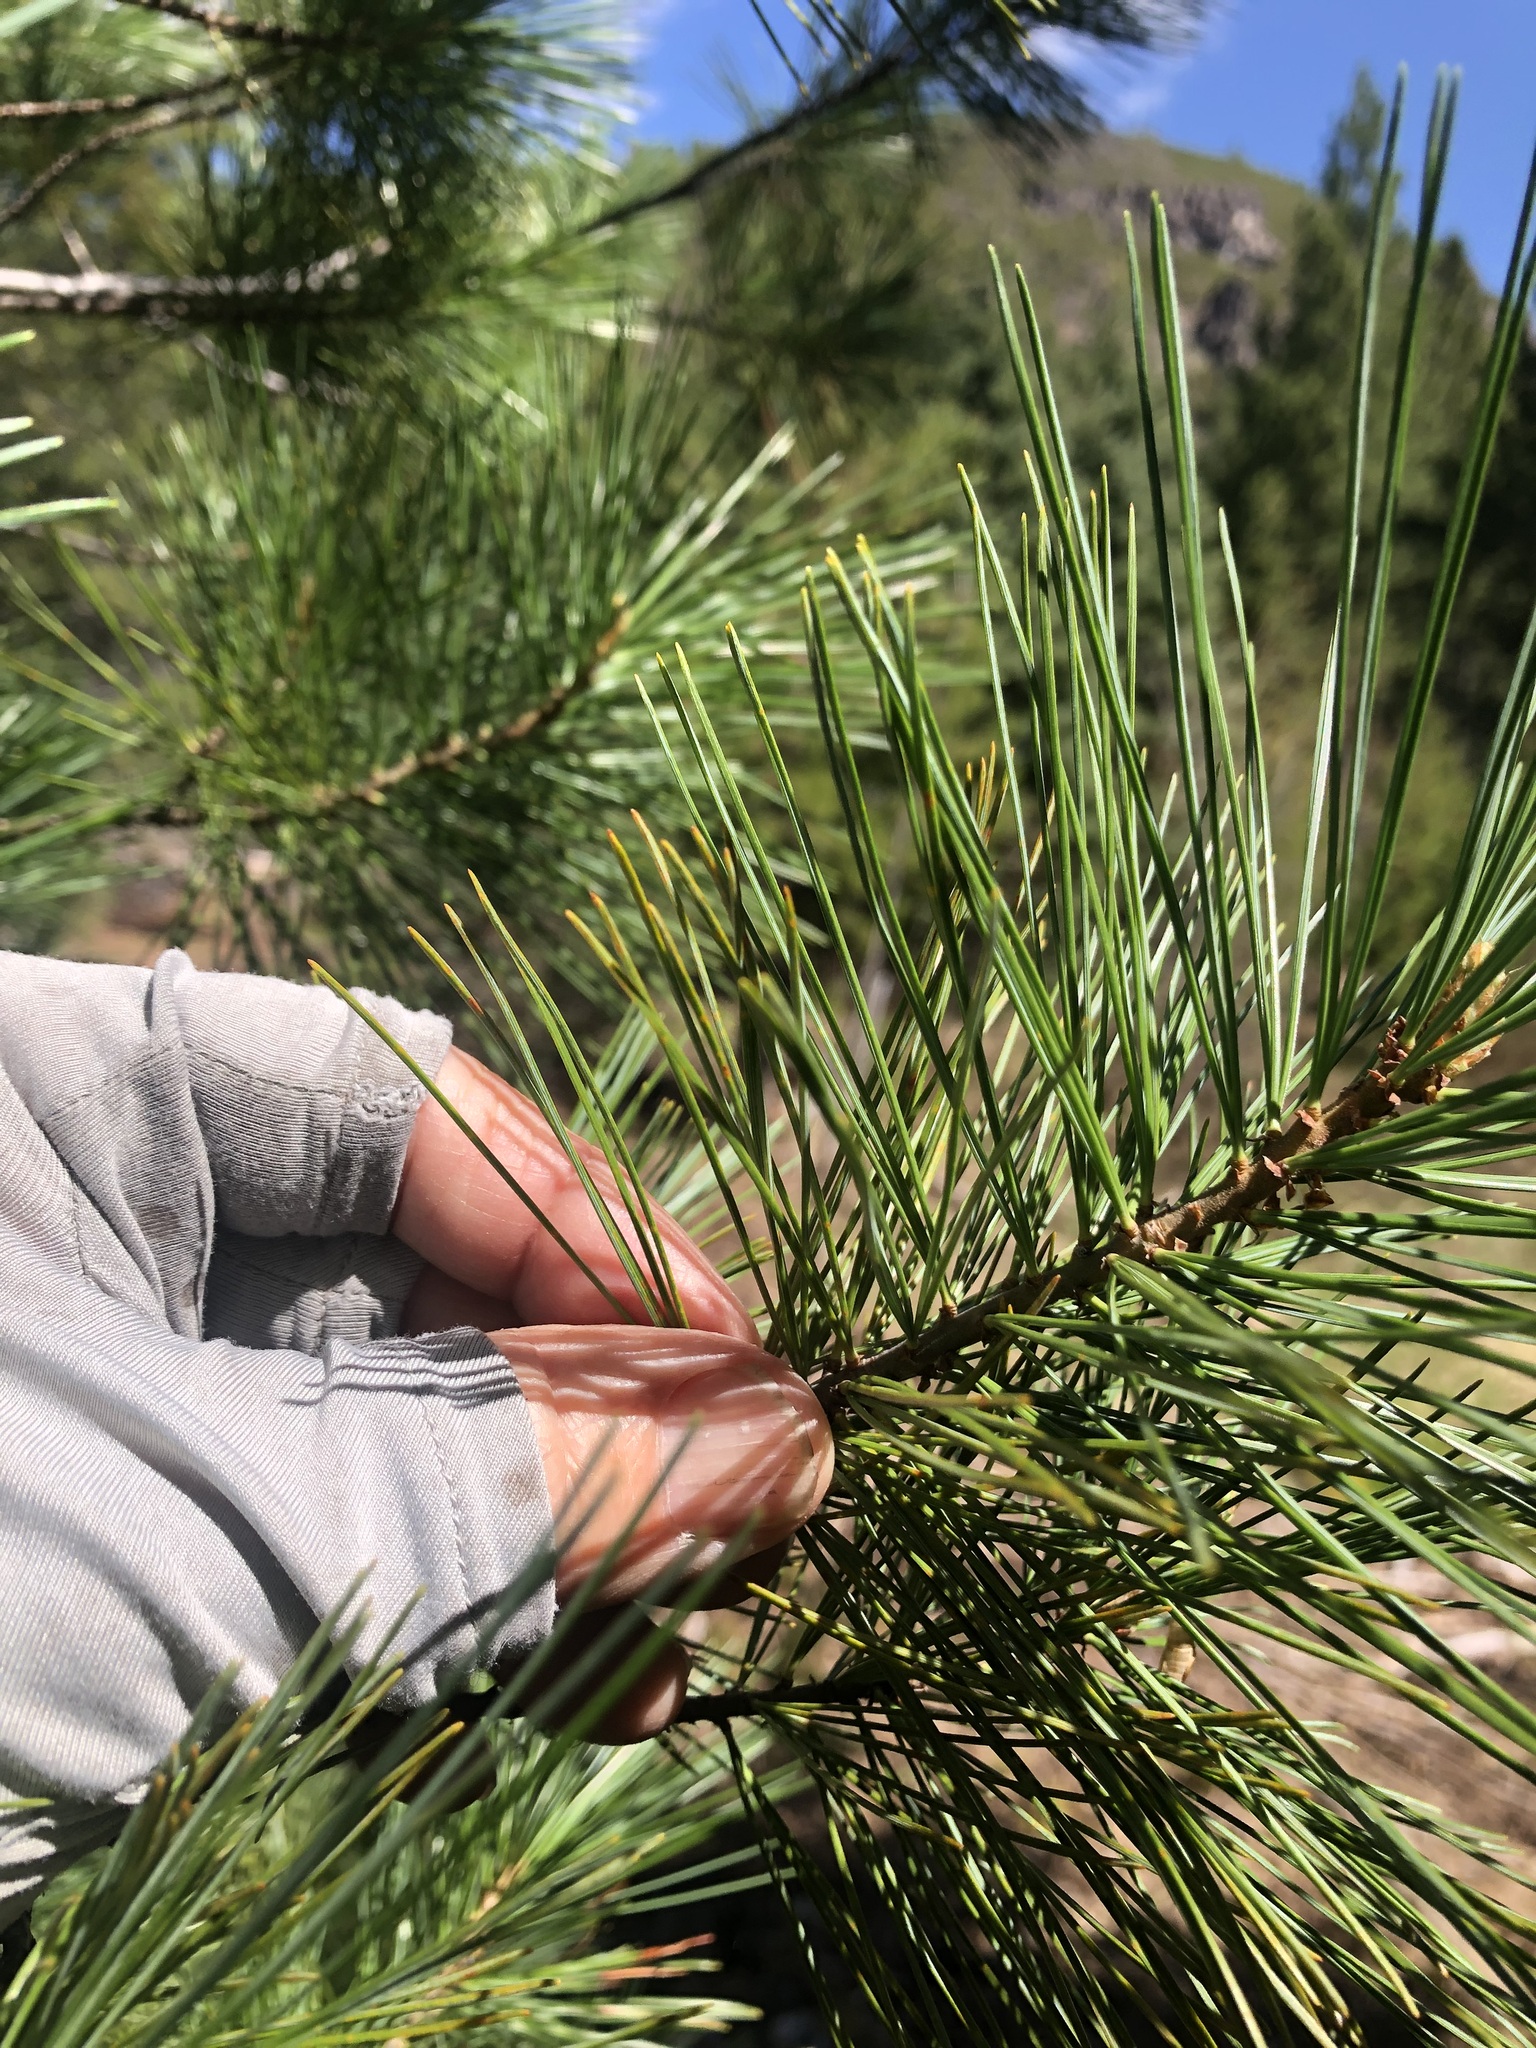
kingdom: Plantae
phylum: Tracheophyta
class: Pinopsida
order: Pinales
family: Pinaceae
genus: Pinus
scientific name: Pinus monticola
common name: Western white pine
